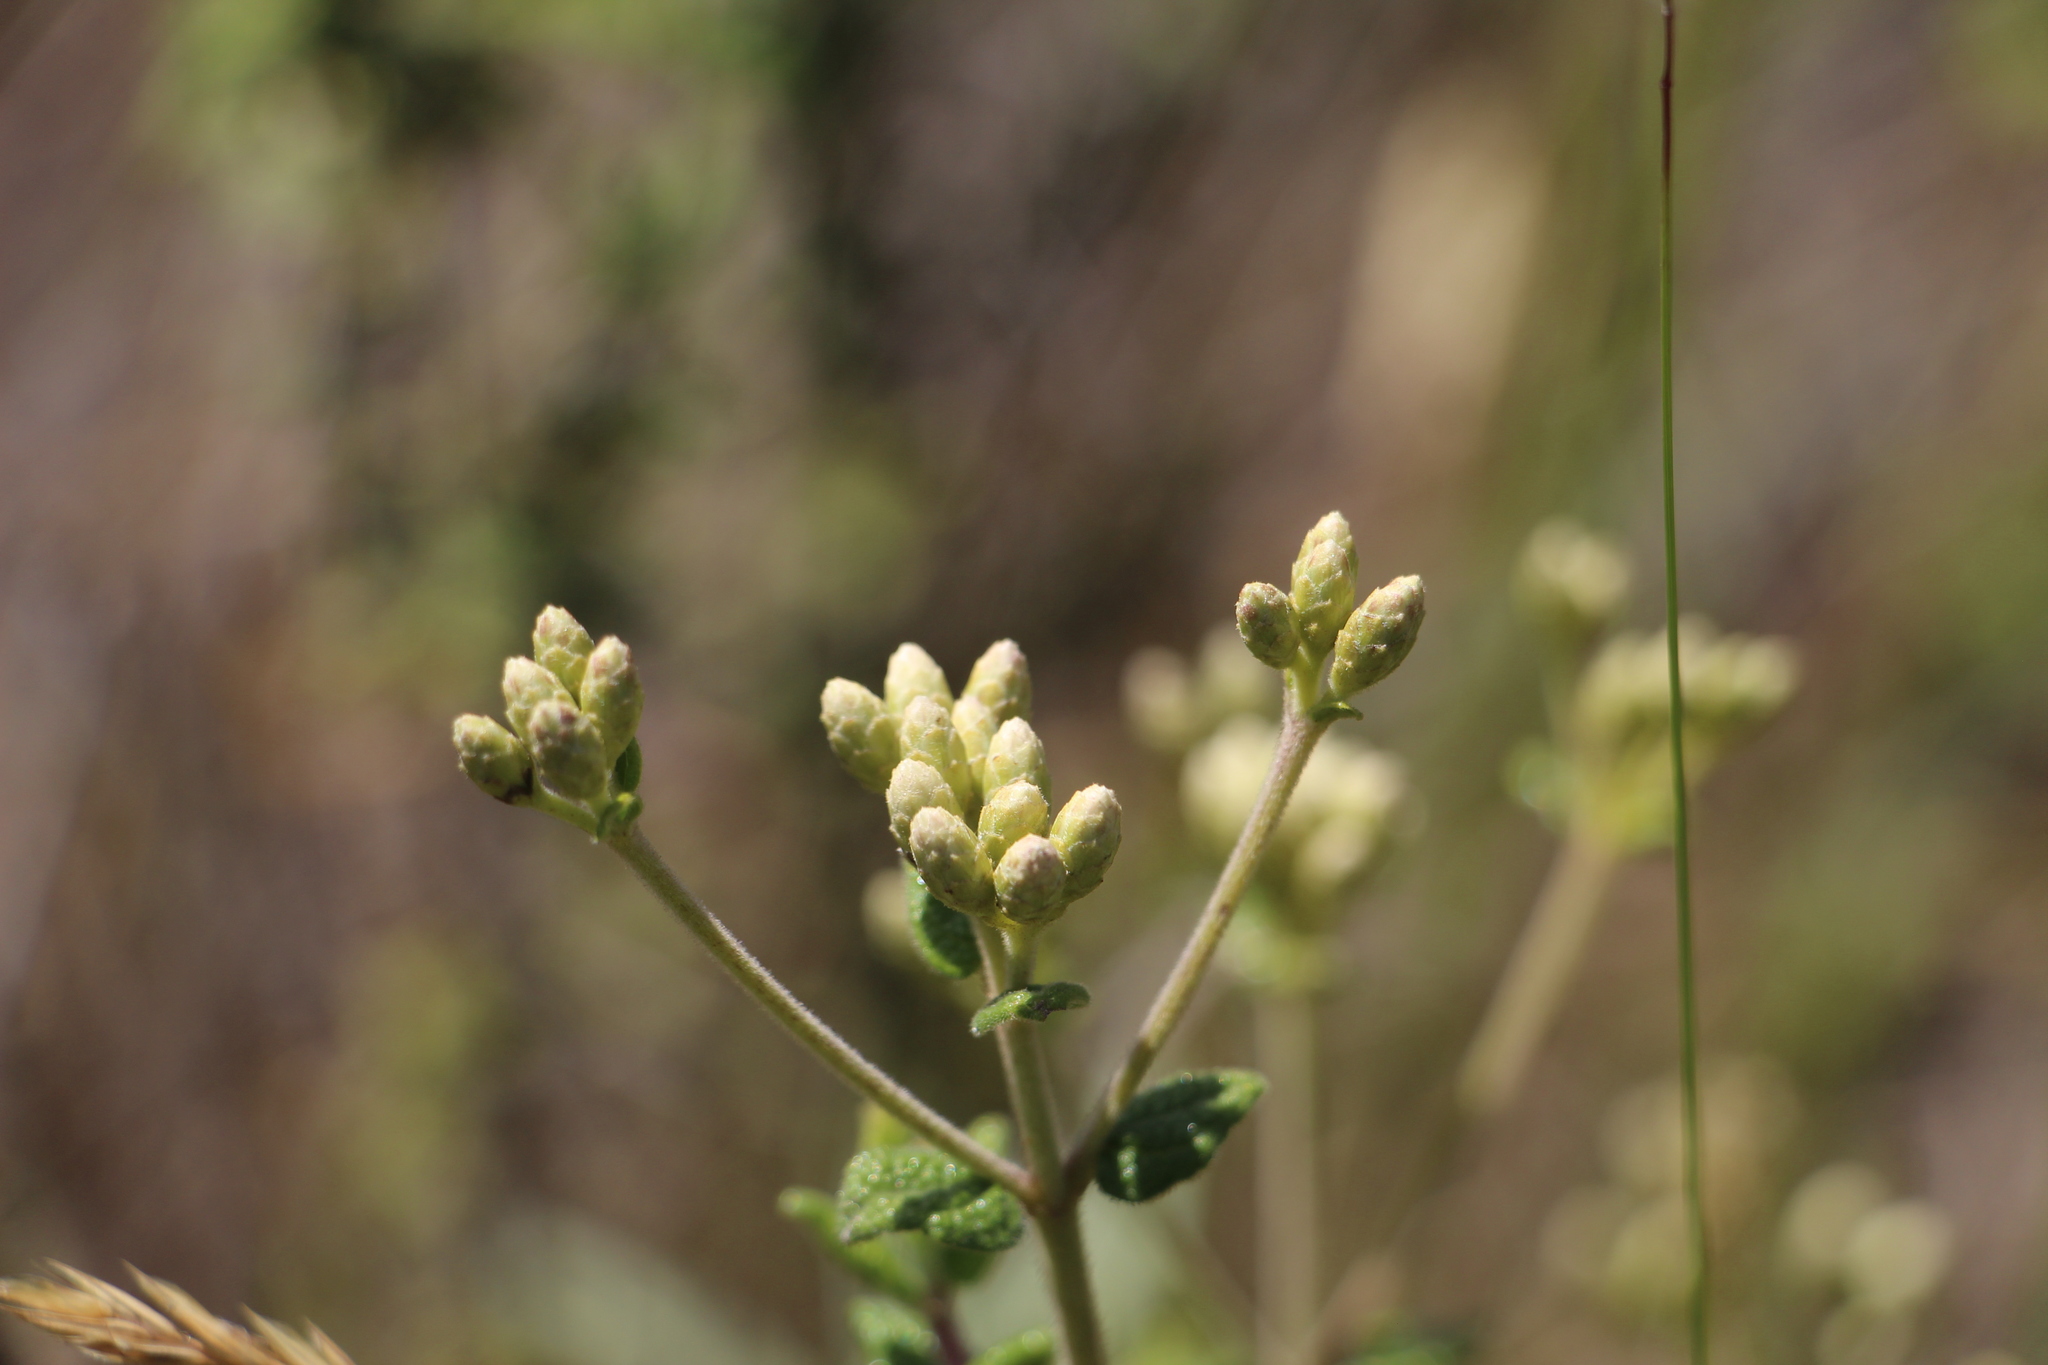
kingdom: Plantae
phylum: Tracheophyta
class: Magnoliopsida
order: Asterales
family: Asteraceae
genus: Chromolaena
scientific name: Chromolaena bullata
